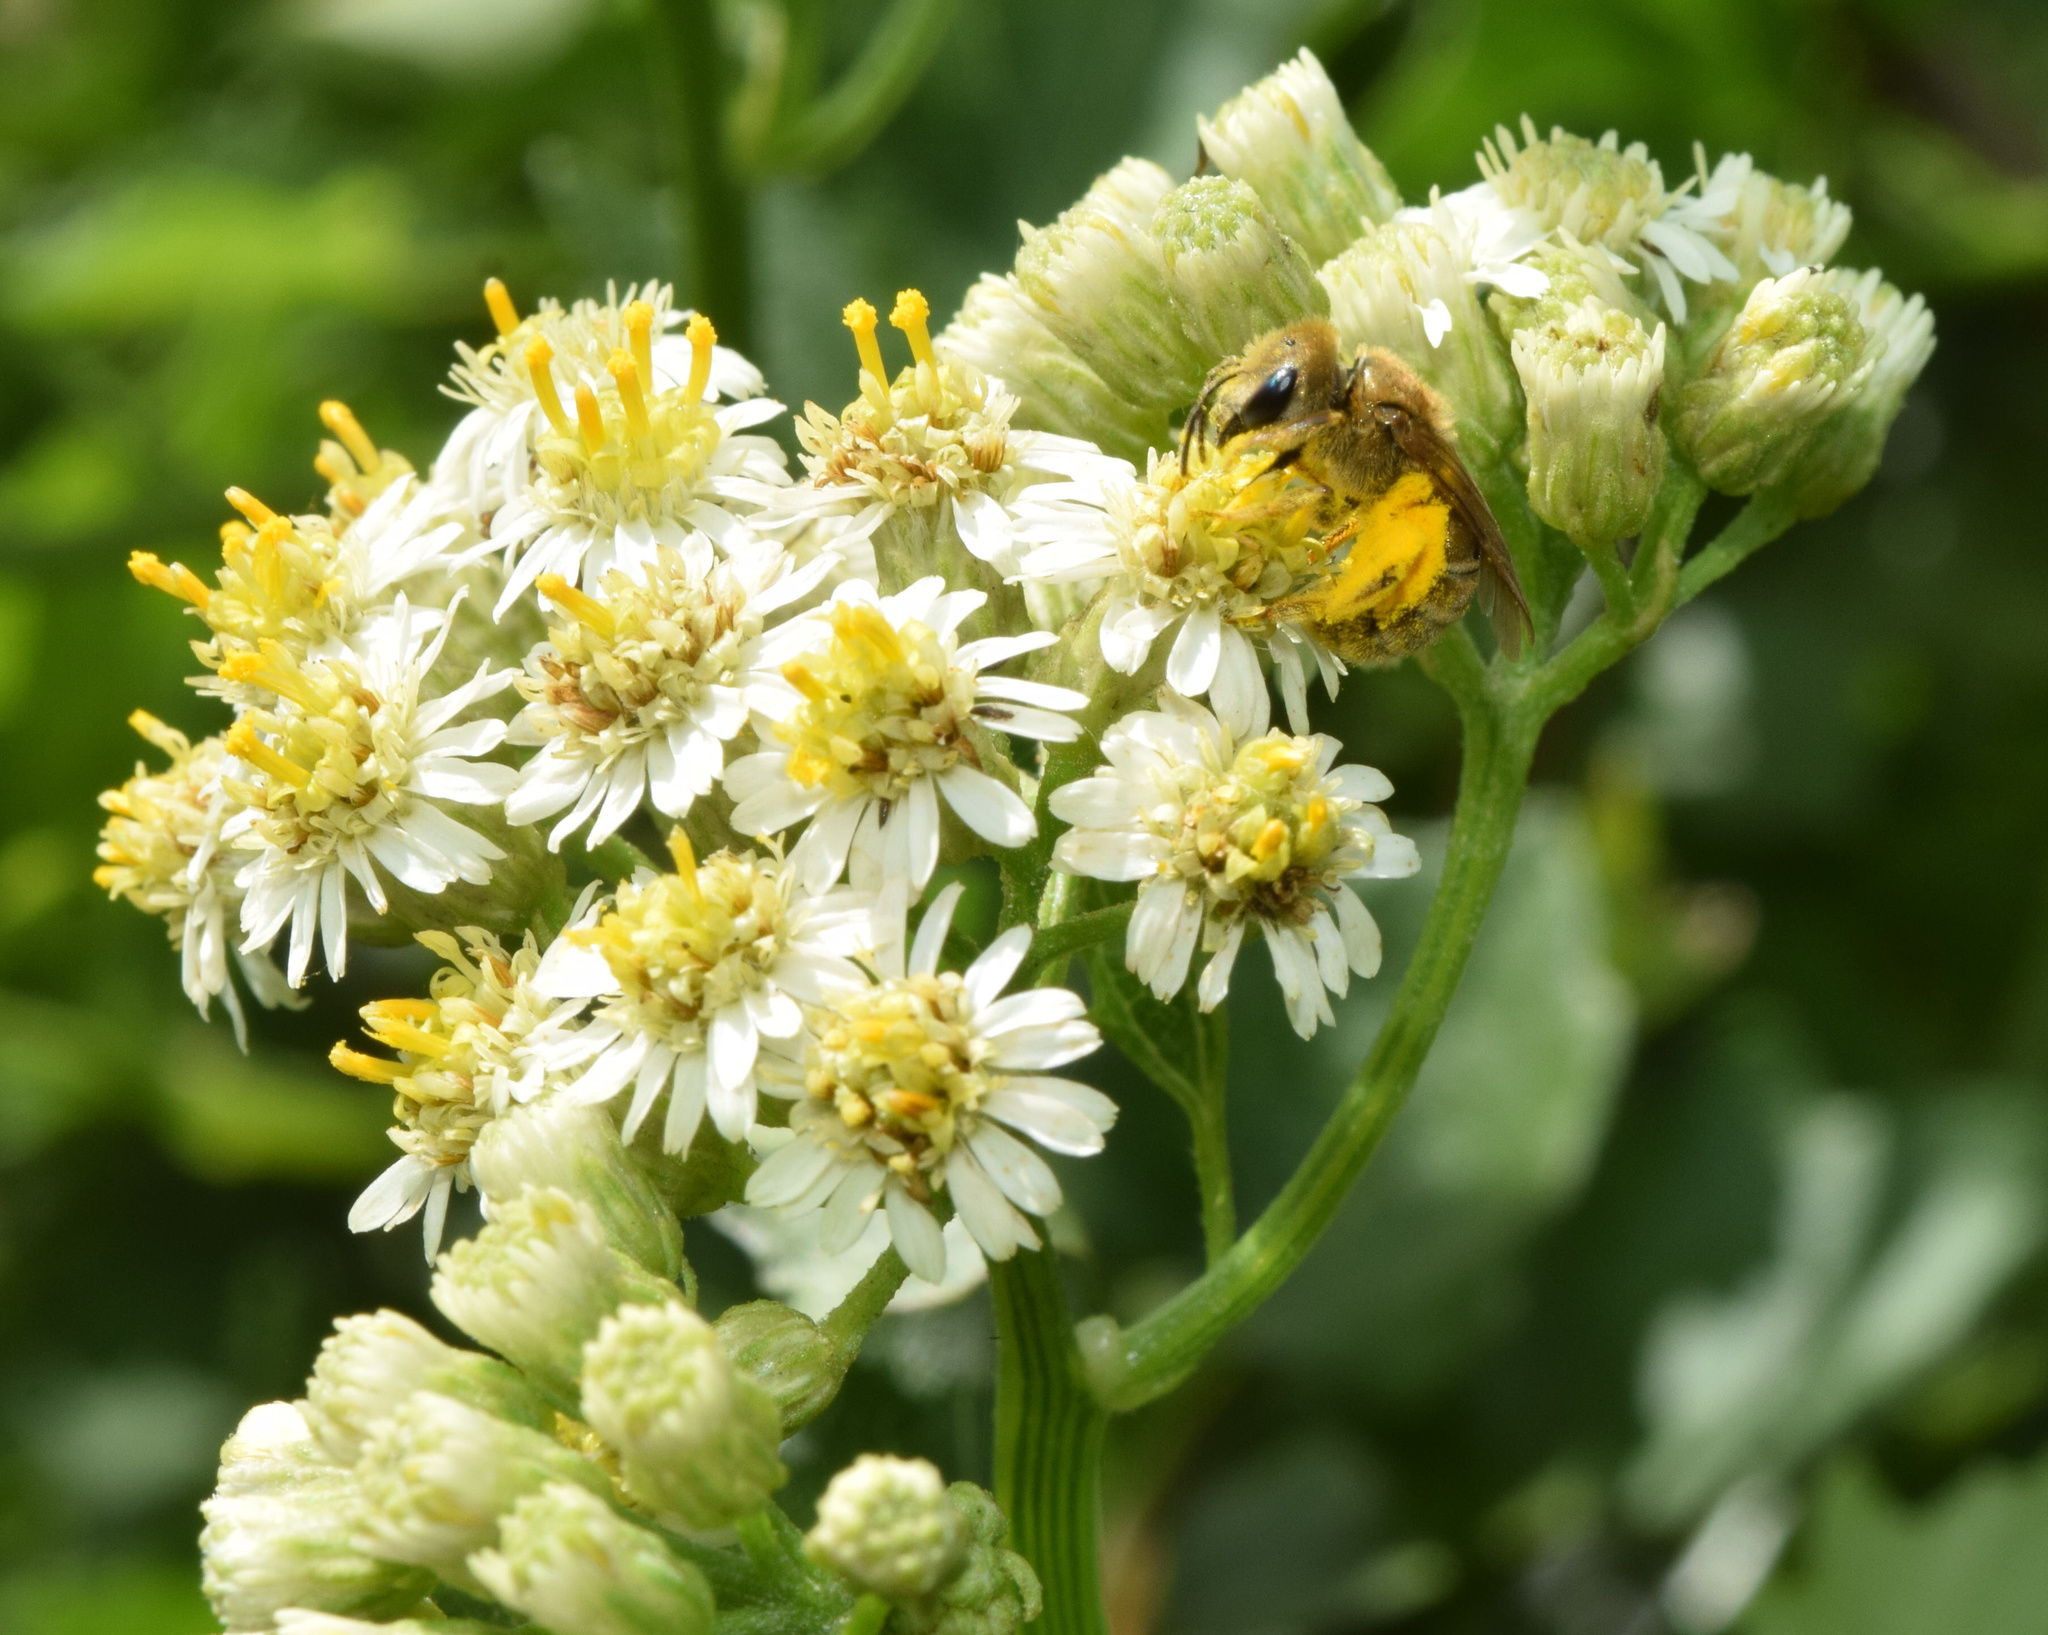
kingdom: Plantae
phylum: Tracheophyta
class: Magnoliopsida
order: Asterales
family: Asteraceae
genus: Microglossa
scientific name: Microglossa mespilifolia
